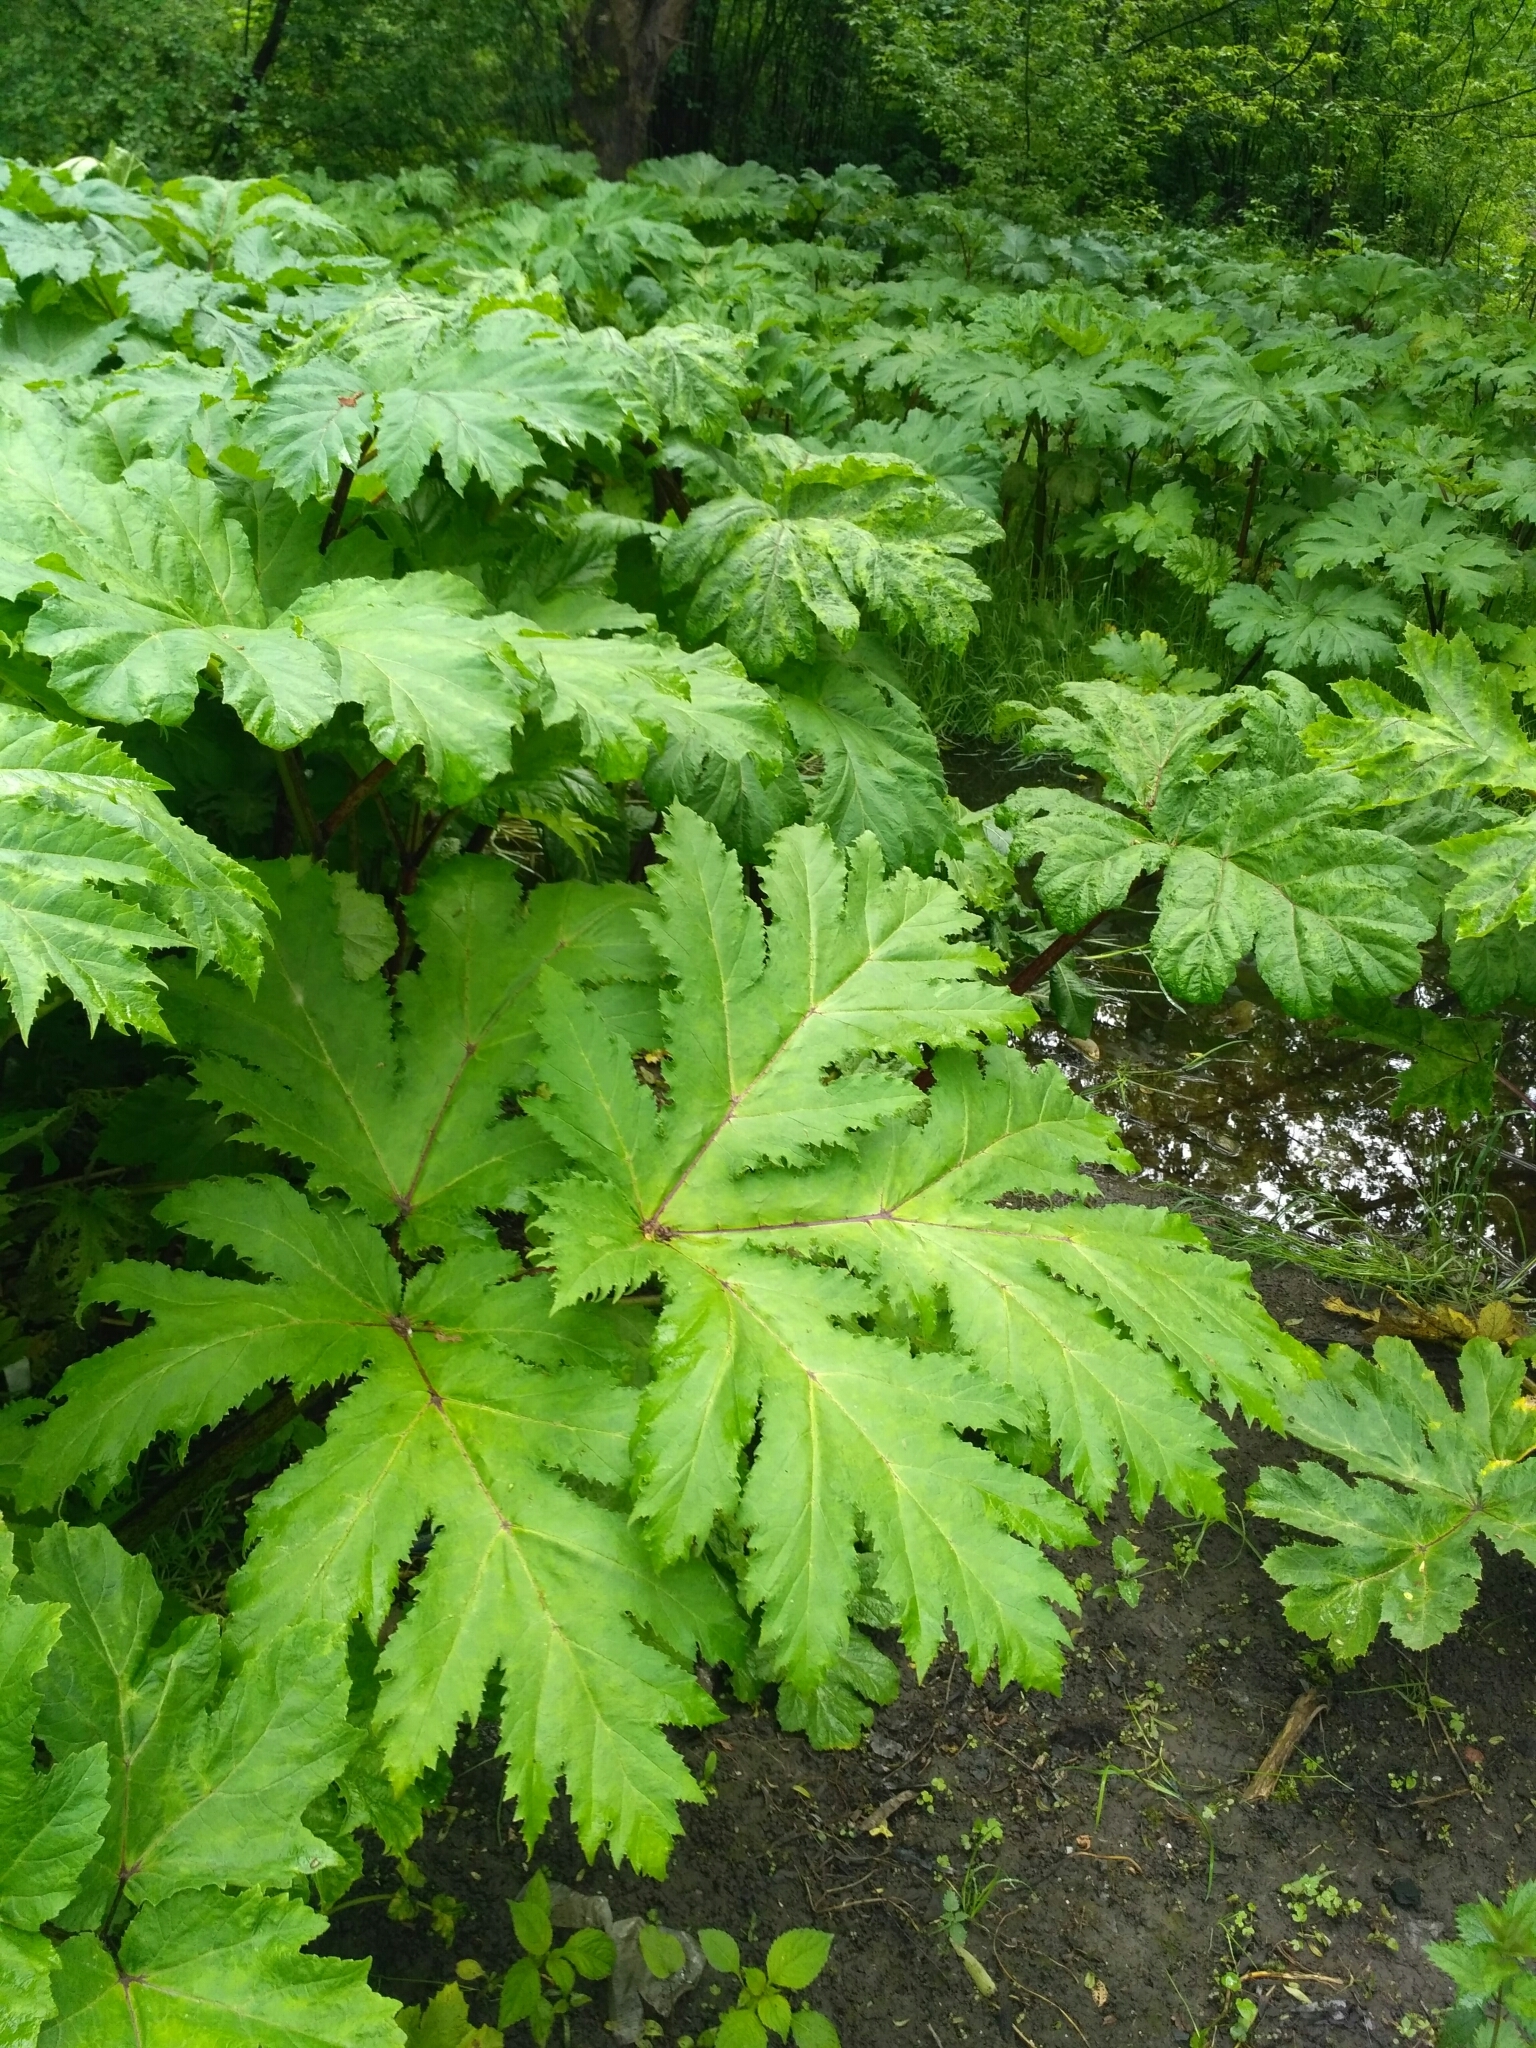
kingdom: Plantae
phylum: Tracheophyta
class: Magnoliopsida
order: Apiales
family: Apiaceae
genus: Heracleum
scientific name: Heracleum sosnowskyi
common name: Sosnowsky's hogweed
